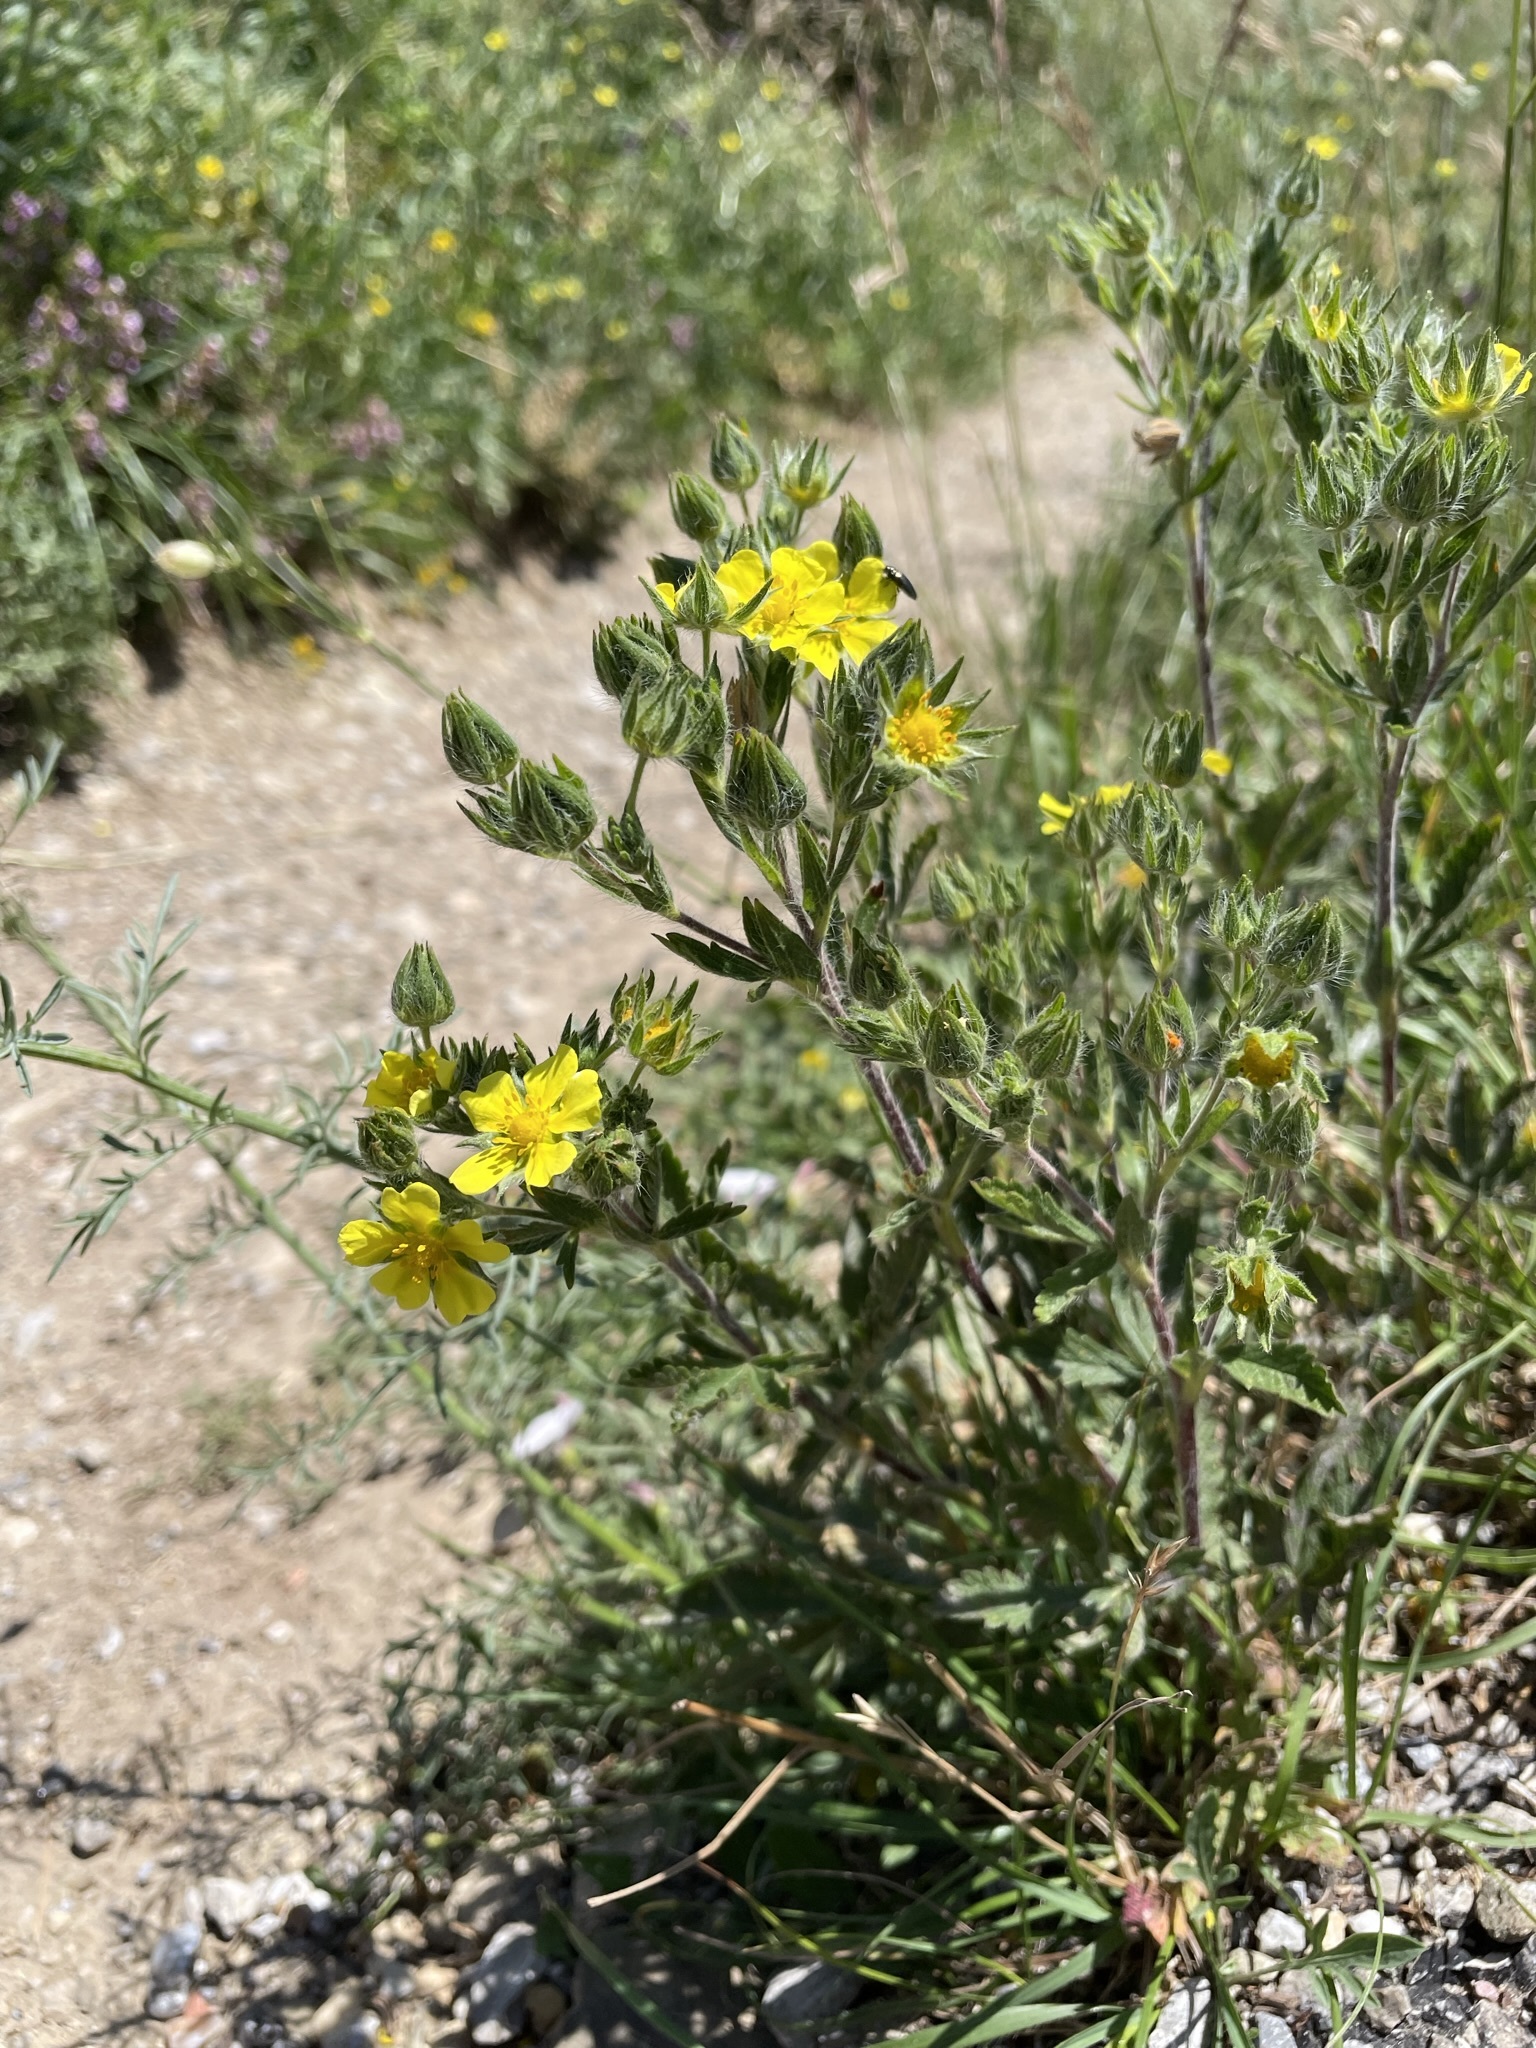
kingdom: Plantae
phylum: Tracheophyta
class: Magnoliopsida
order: Rosales
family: Rosaceae
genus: Potentilla
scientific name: Potentilla inclinata
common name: Grey cinquefoil
